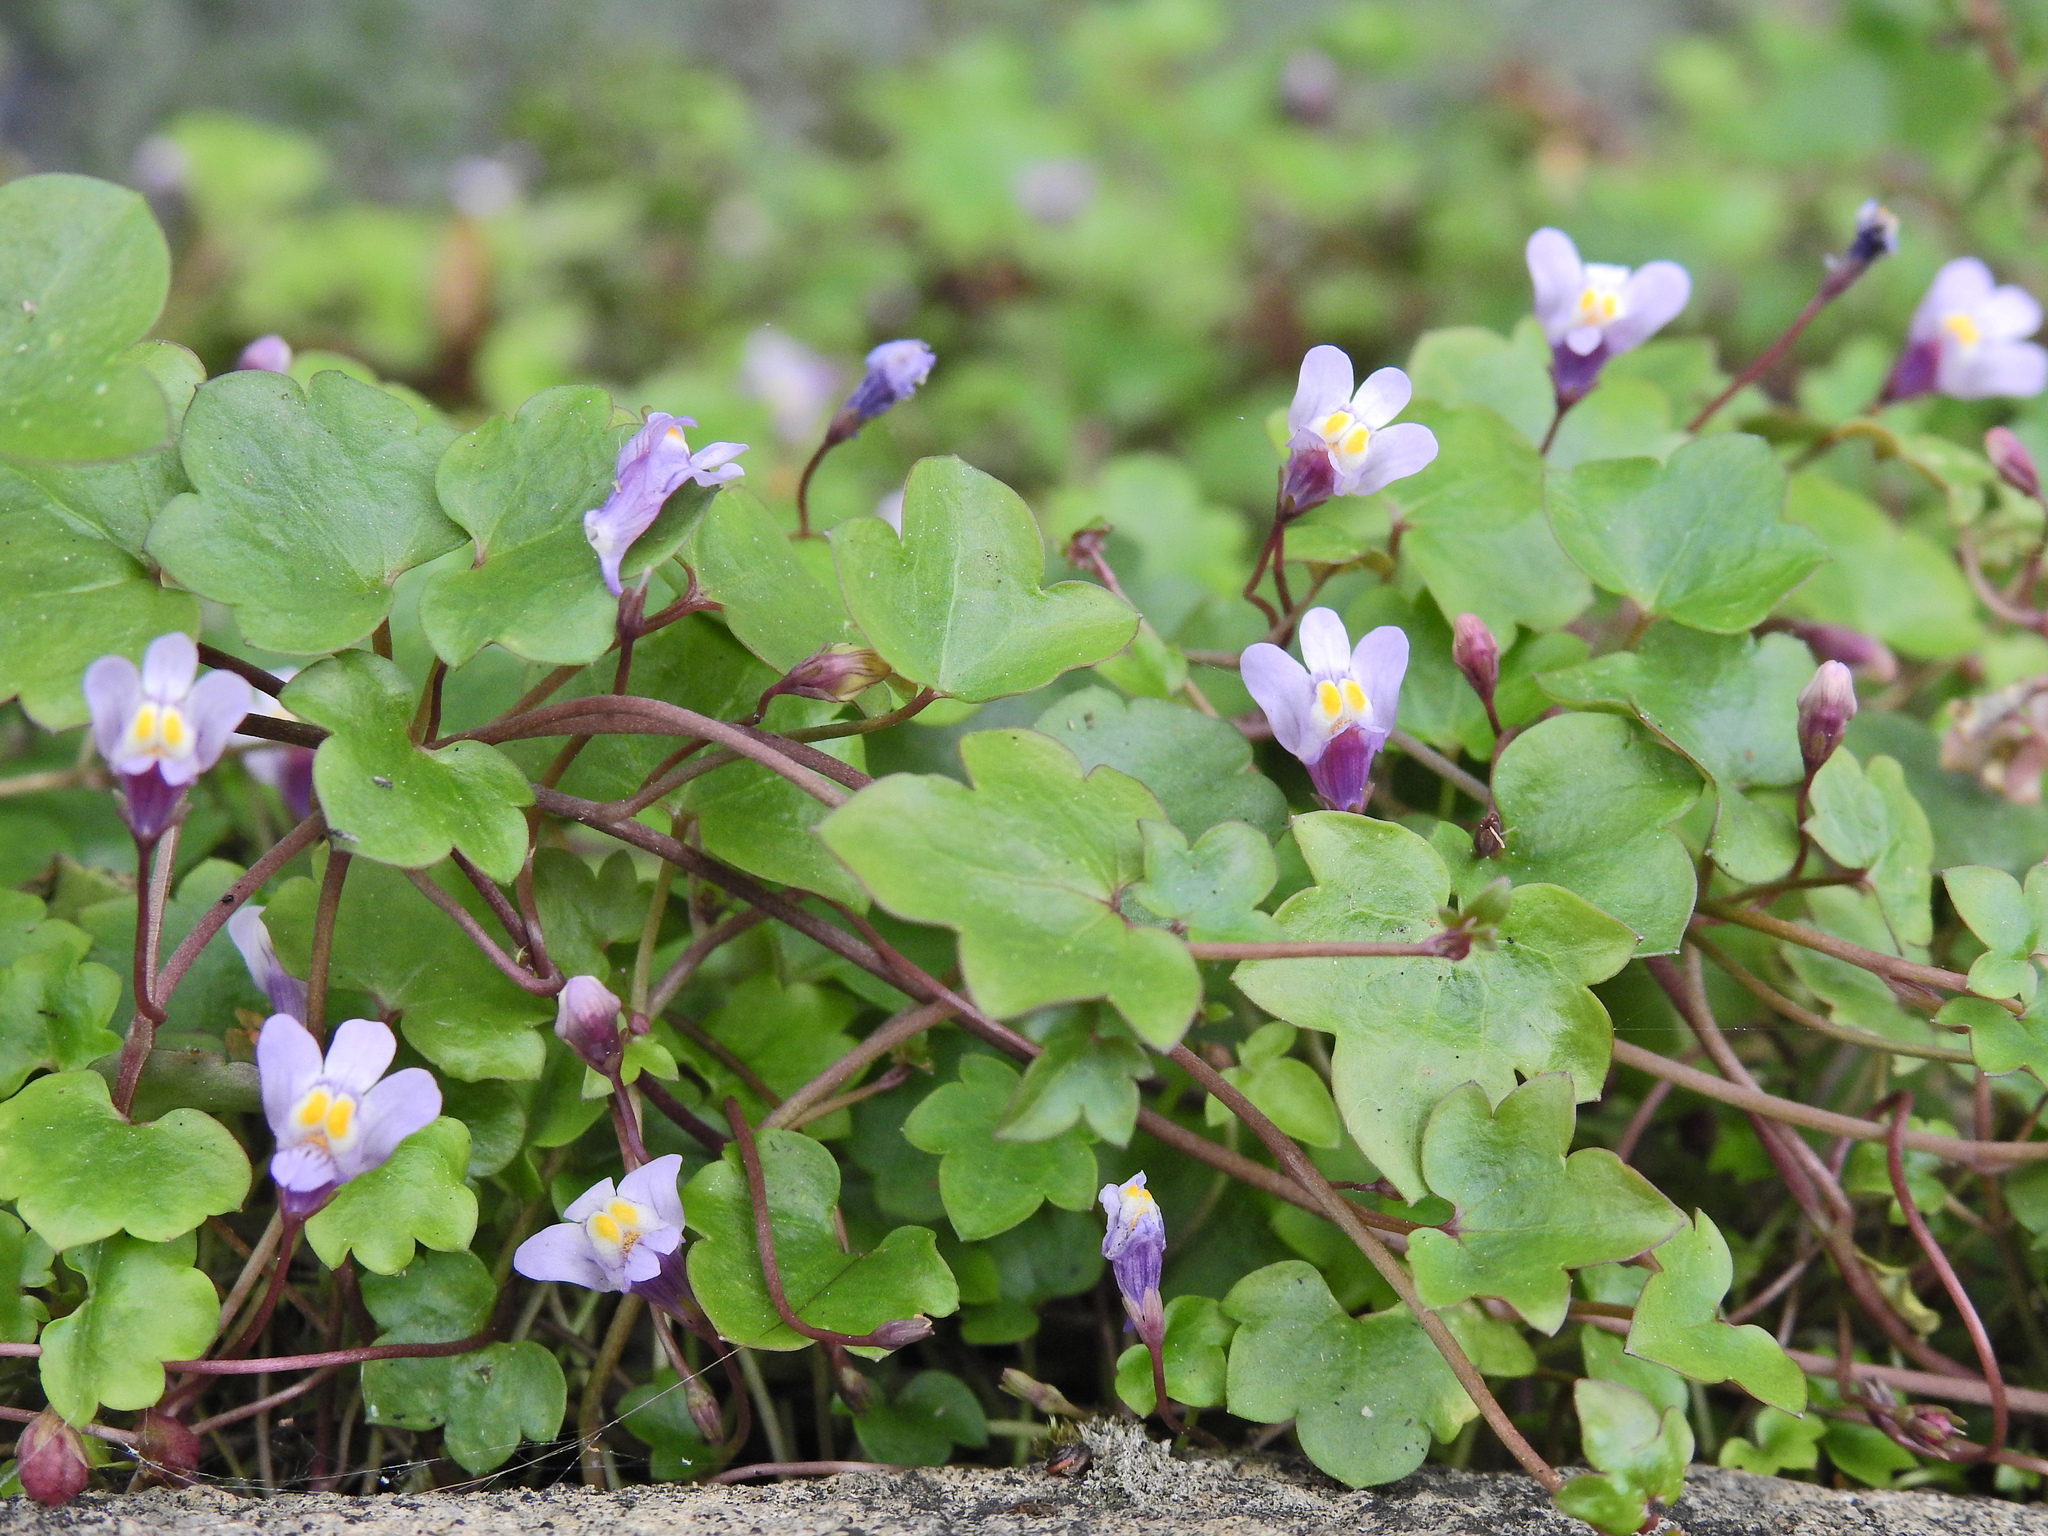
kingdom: Plantae
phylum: Tracheophyta
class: Magnoliopsida
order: Lamiales
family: Plantaginaceae
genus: Cymbalaria
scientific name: Cymbalaria muralis
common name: Ivy-leaved toadflax
